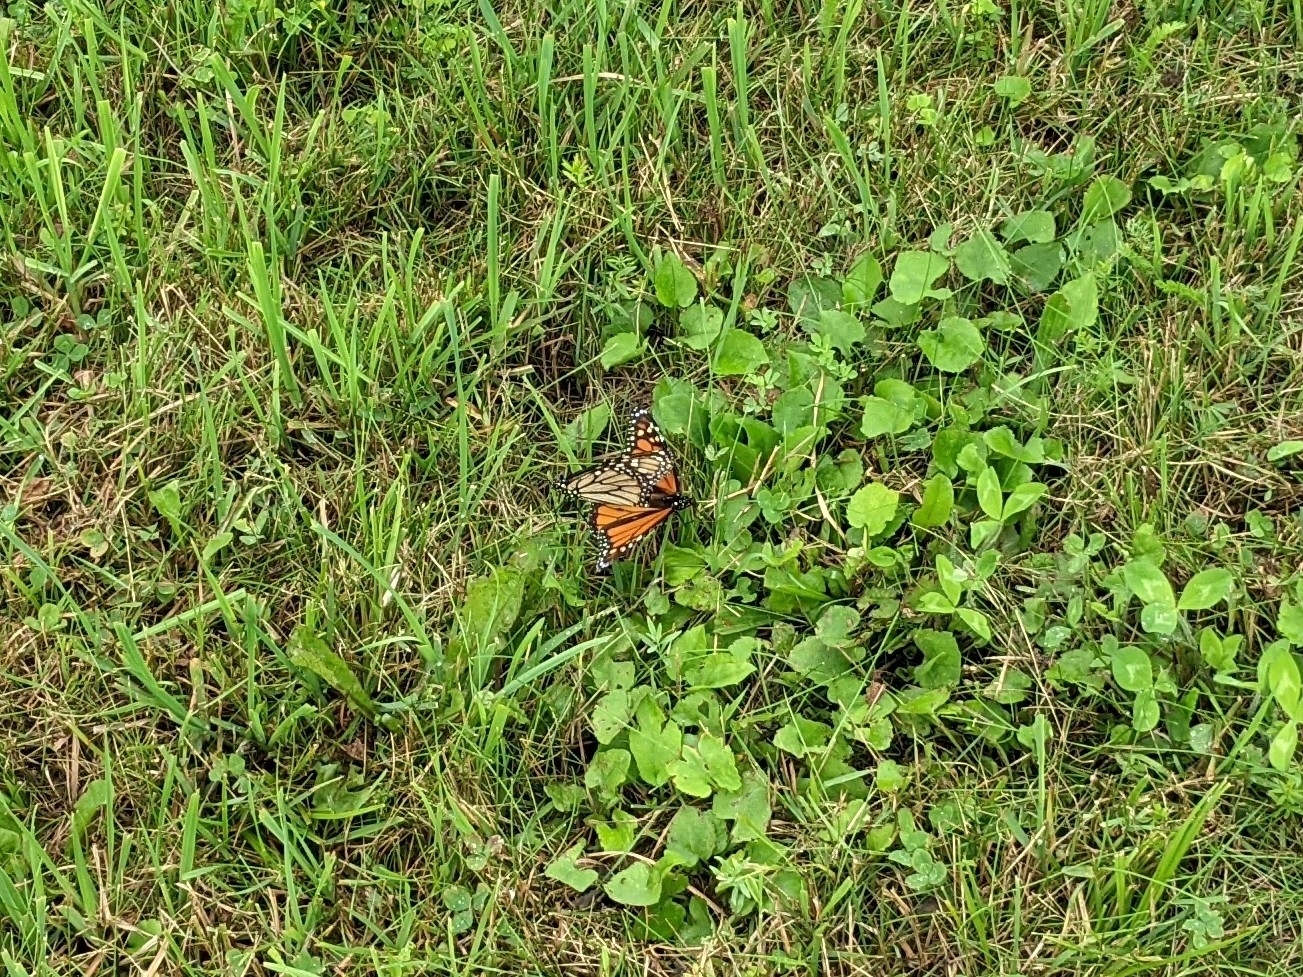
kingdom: Animalia
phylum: Arthropoda
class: Insecta
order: Lepidoptera
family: Nymphalidae
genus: Danaus
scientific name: Danaus plexippus
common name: Monarch
